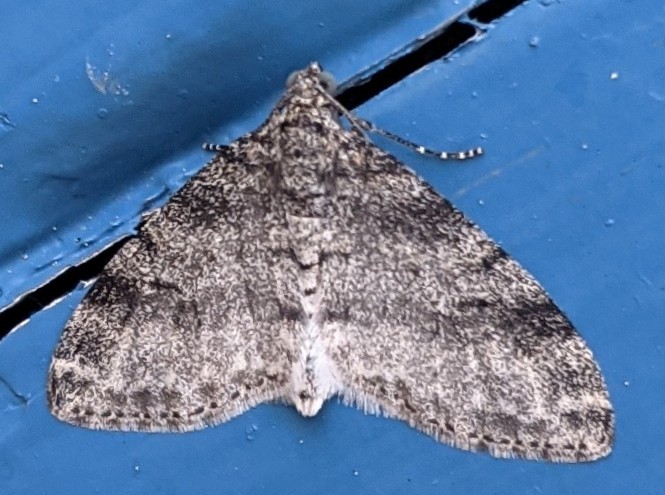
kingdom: Animalia
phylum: Arthropoda
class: Insecta
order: Lepidoptera
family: Geometridae
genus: Lobophora
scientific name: Lobophora nivigerata
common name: Powdered bigwing
